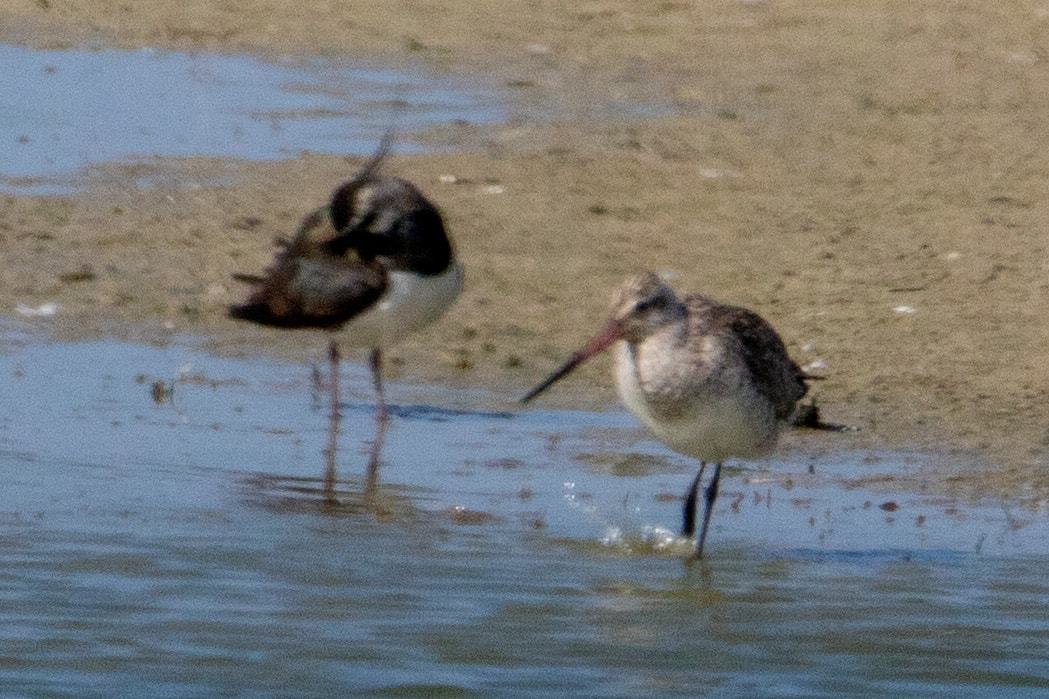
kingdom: Animalia
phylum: Chordata
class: Aves
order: Charadriiformes
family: Scolopacidae
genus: Limosa
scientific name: Limosa lapponica
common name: Bar-tailed godwit
